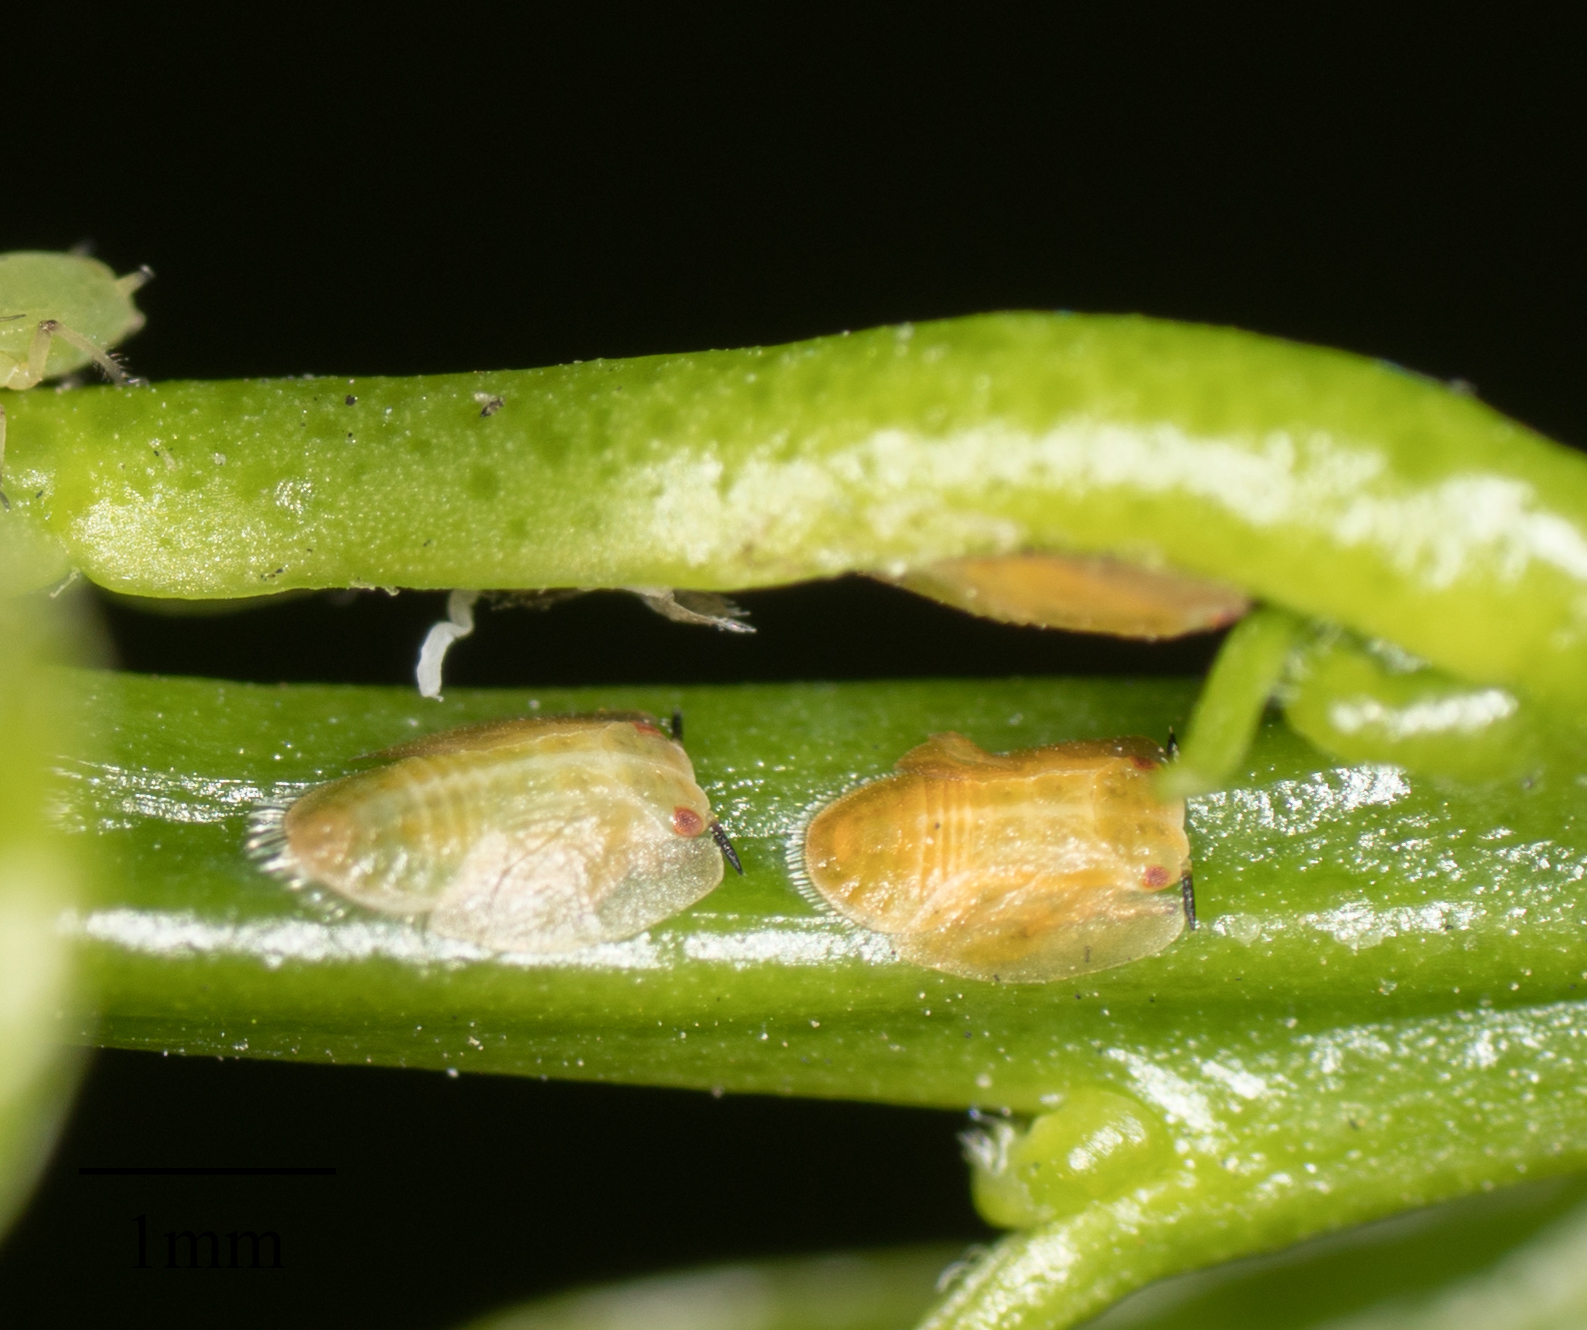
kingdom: Animalia
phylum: Arthropoda
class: Insecta
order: Hemiptera
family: Liviidae
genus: Diaphorina
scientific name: Diaphorina citri
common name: Asian citrus psyllid
